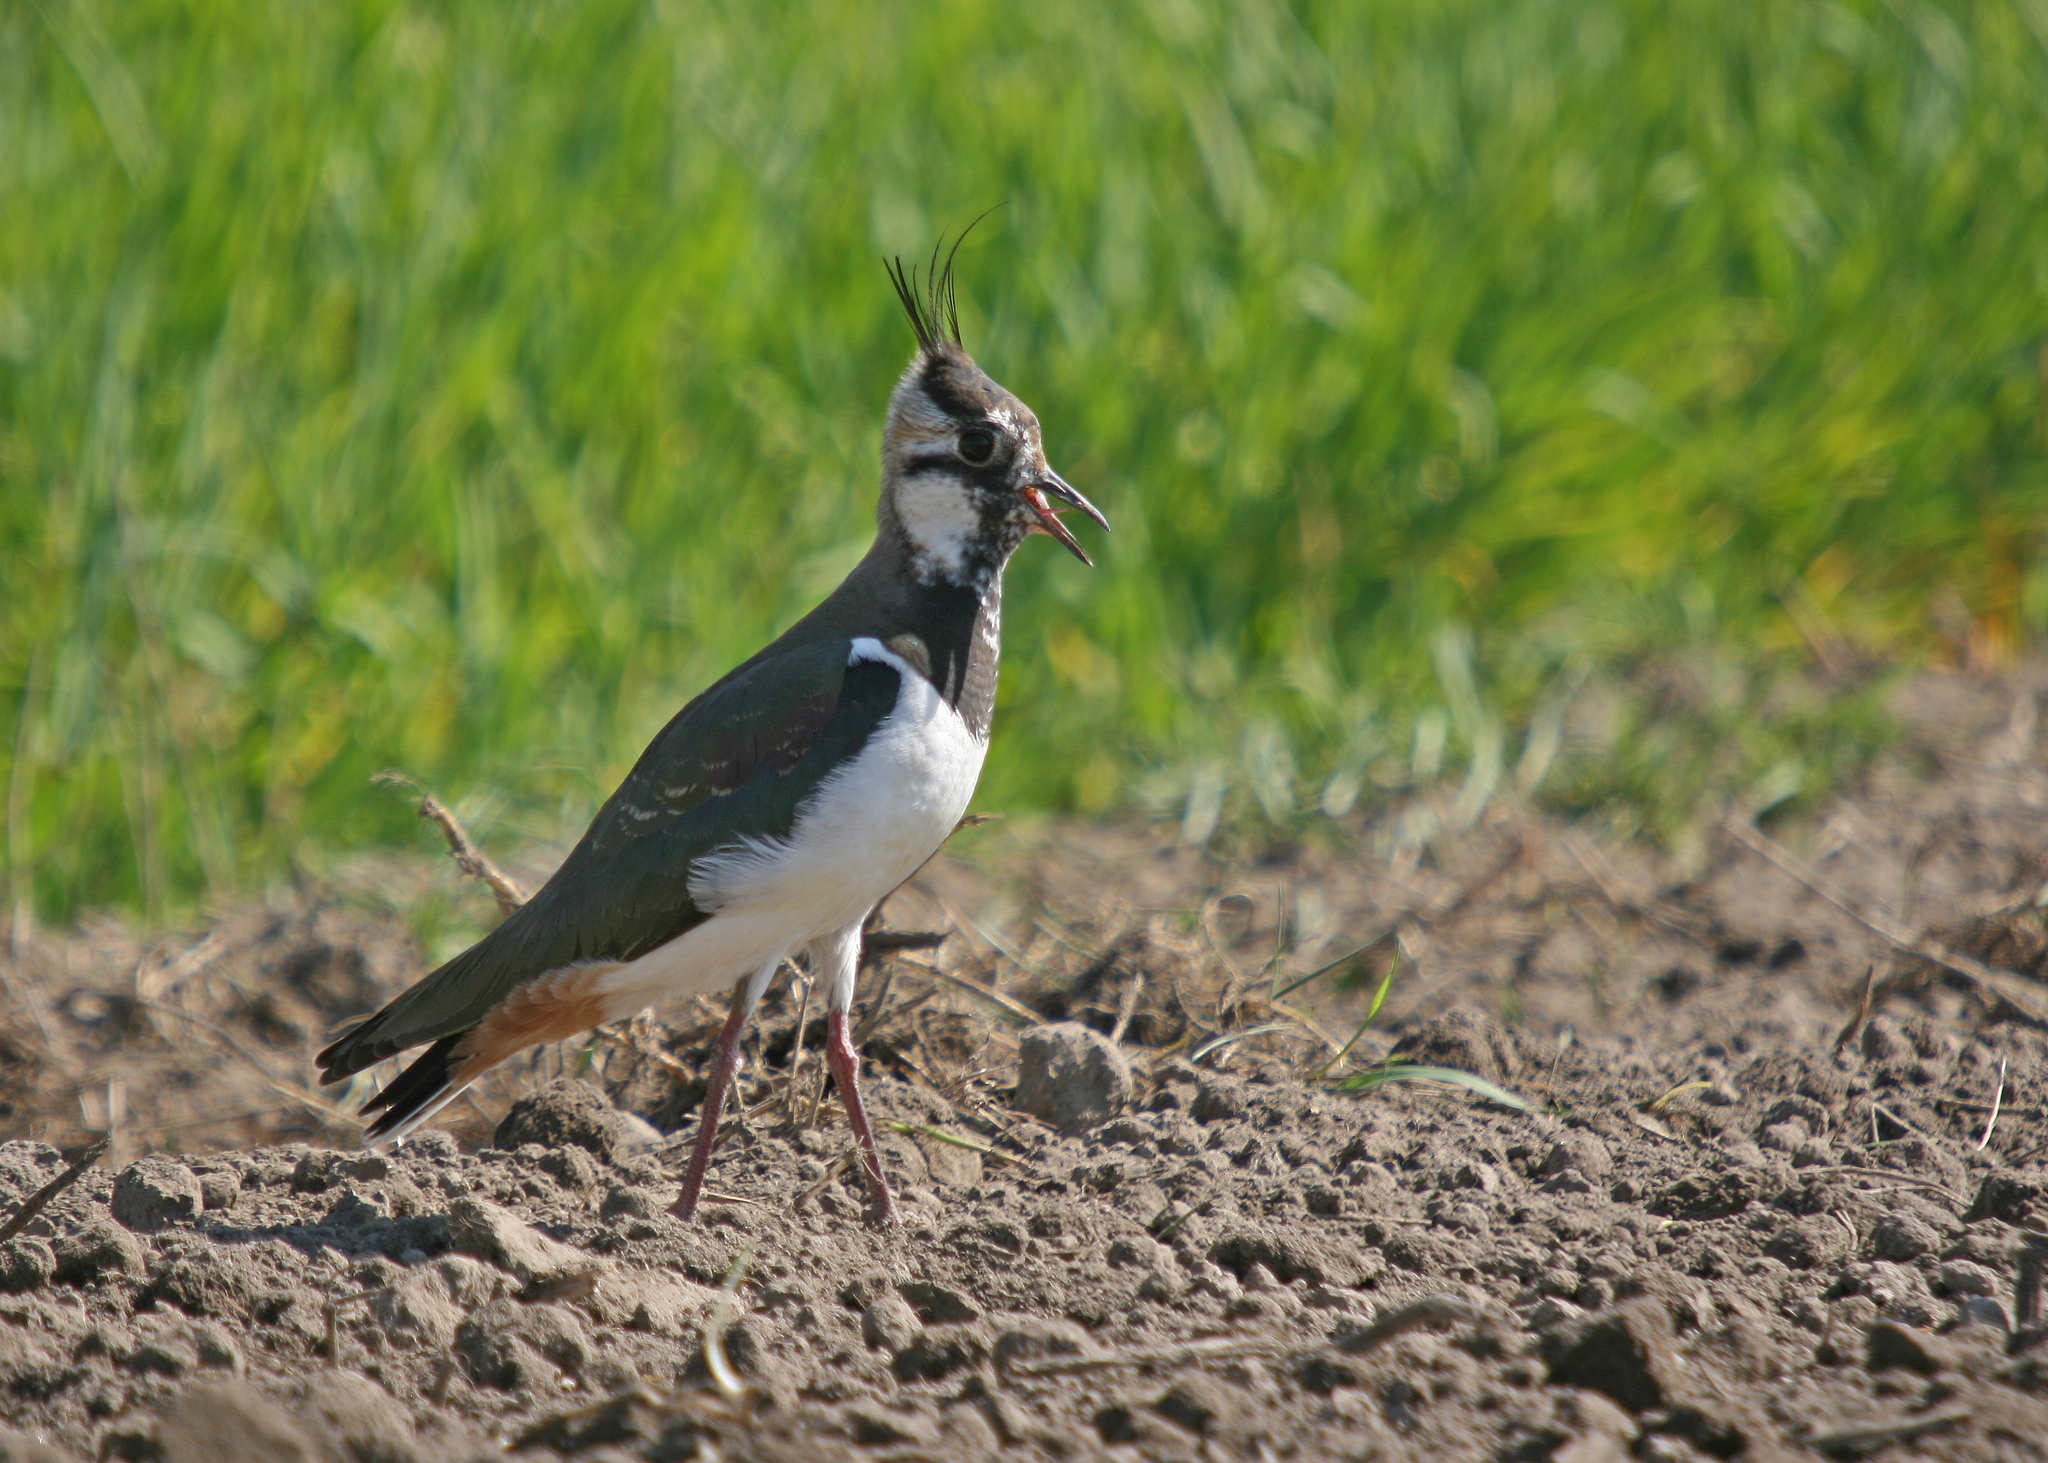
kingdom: Animalia
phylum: Chordata
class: Aves
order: Charadriiformes
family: Charadriidae
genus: Vanellus
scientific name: Vanellus vanellus
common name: Northern lapwing
